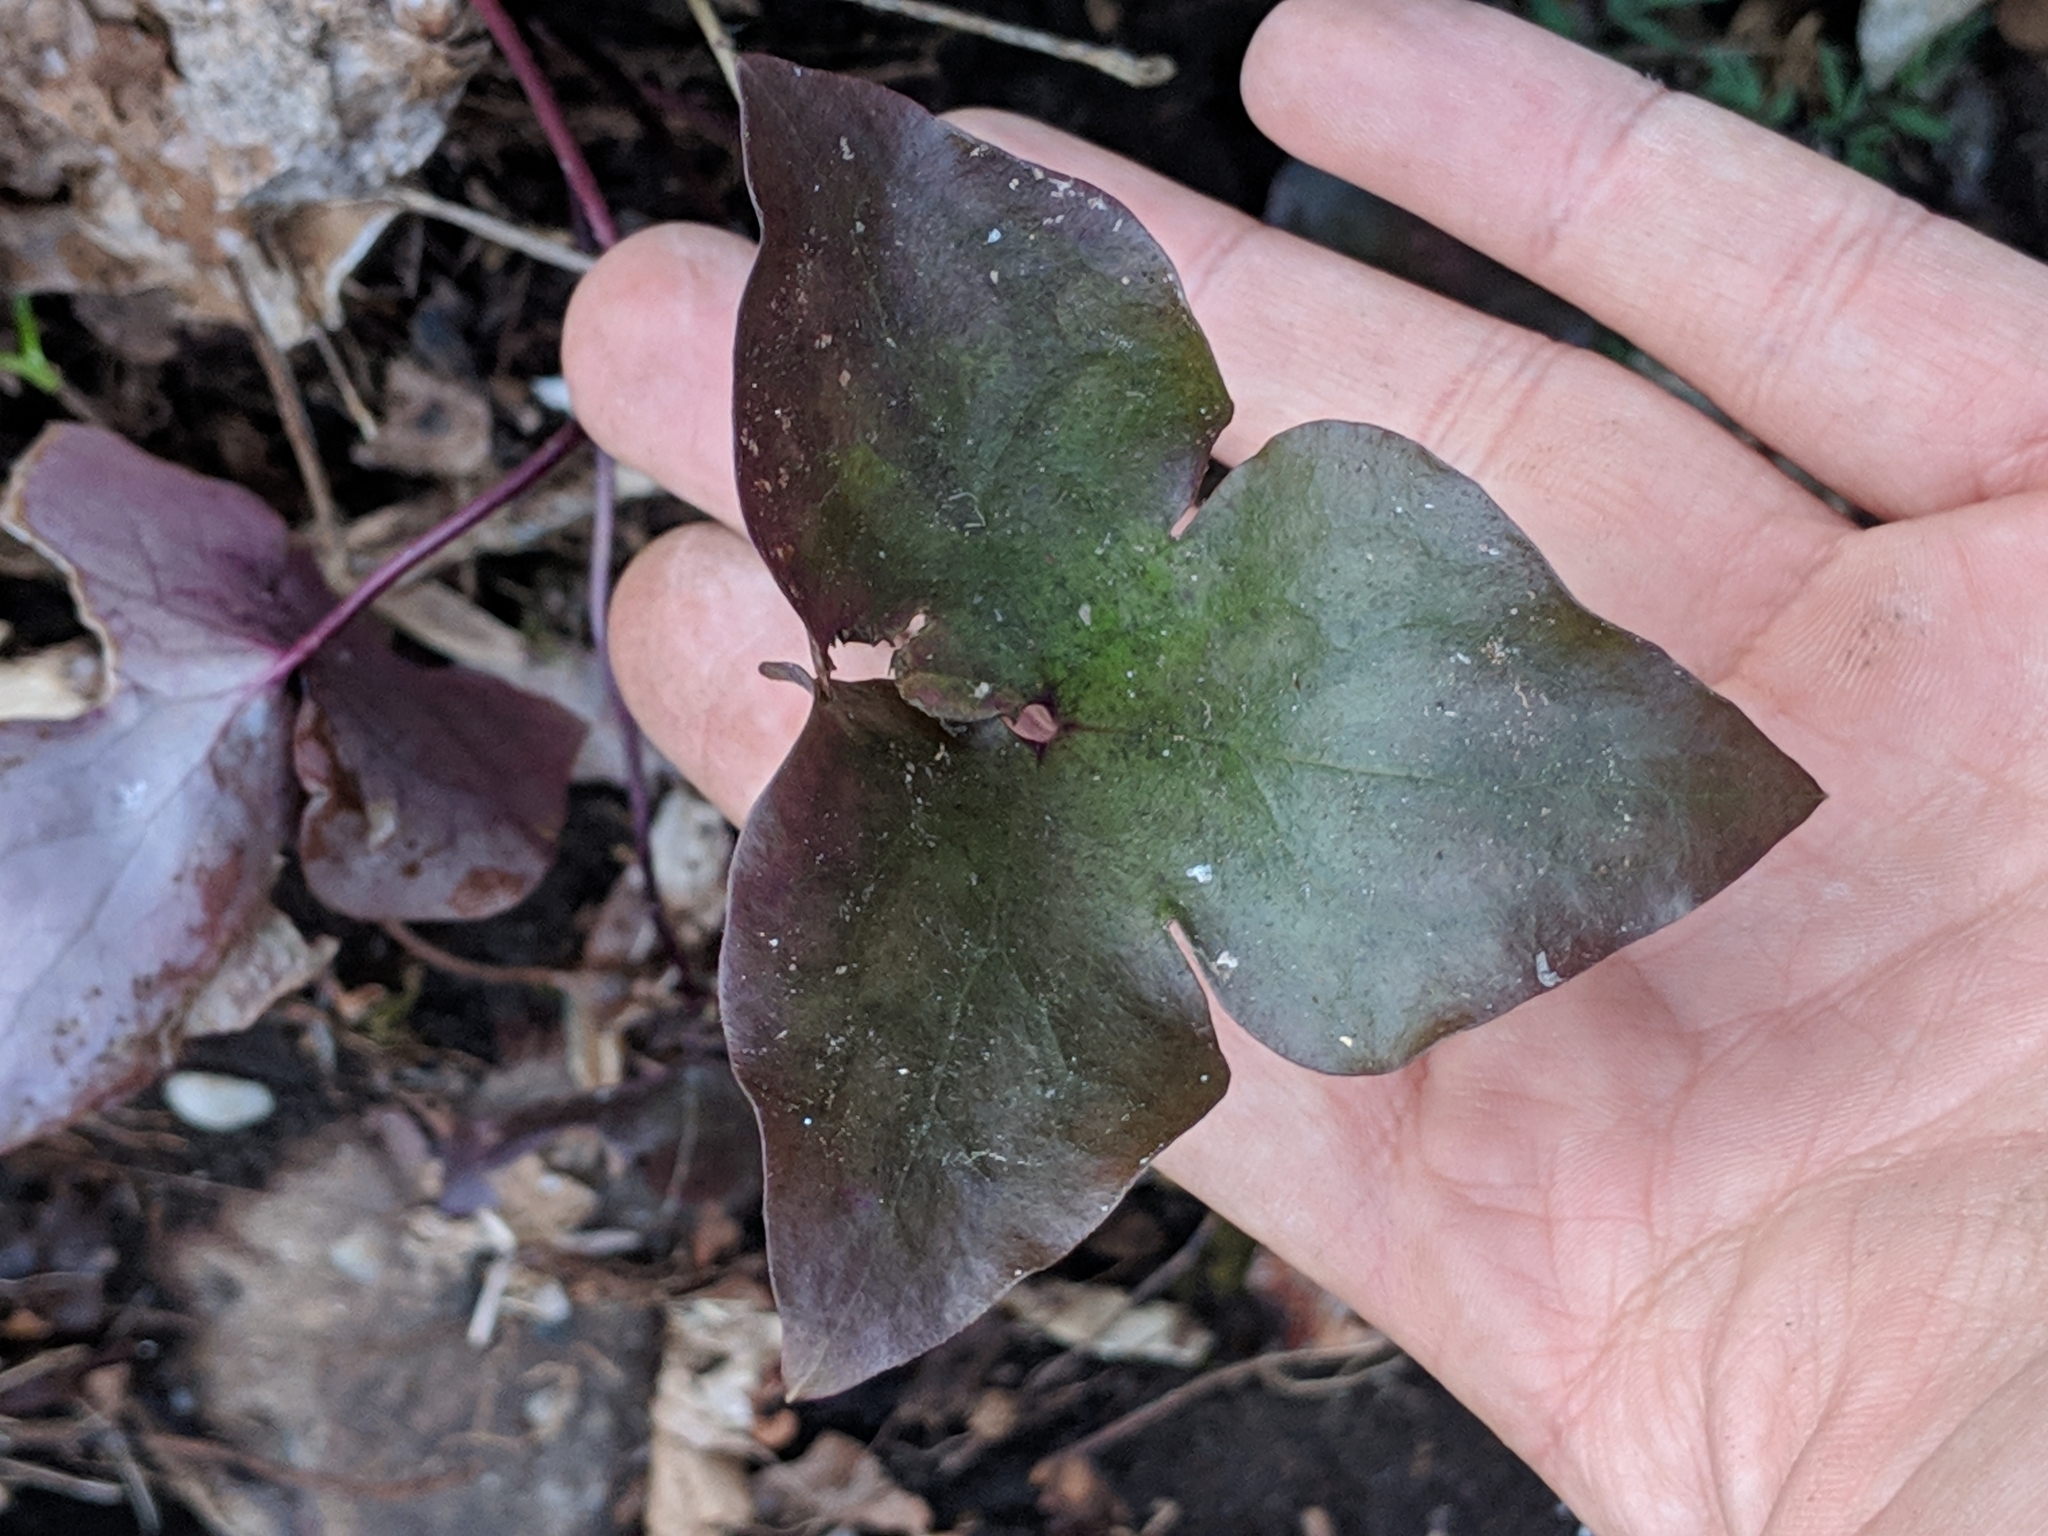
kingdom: Plantae
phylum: Tracheophyta
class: Magnoliopsida
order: Ranunculales
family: Ranunculaceae
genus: Hepatica
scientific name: Hepatica acutiloba
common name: Sharp-lobed hepatica
